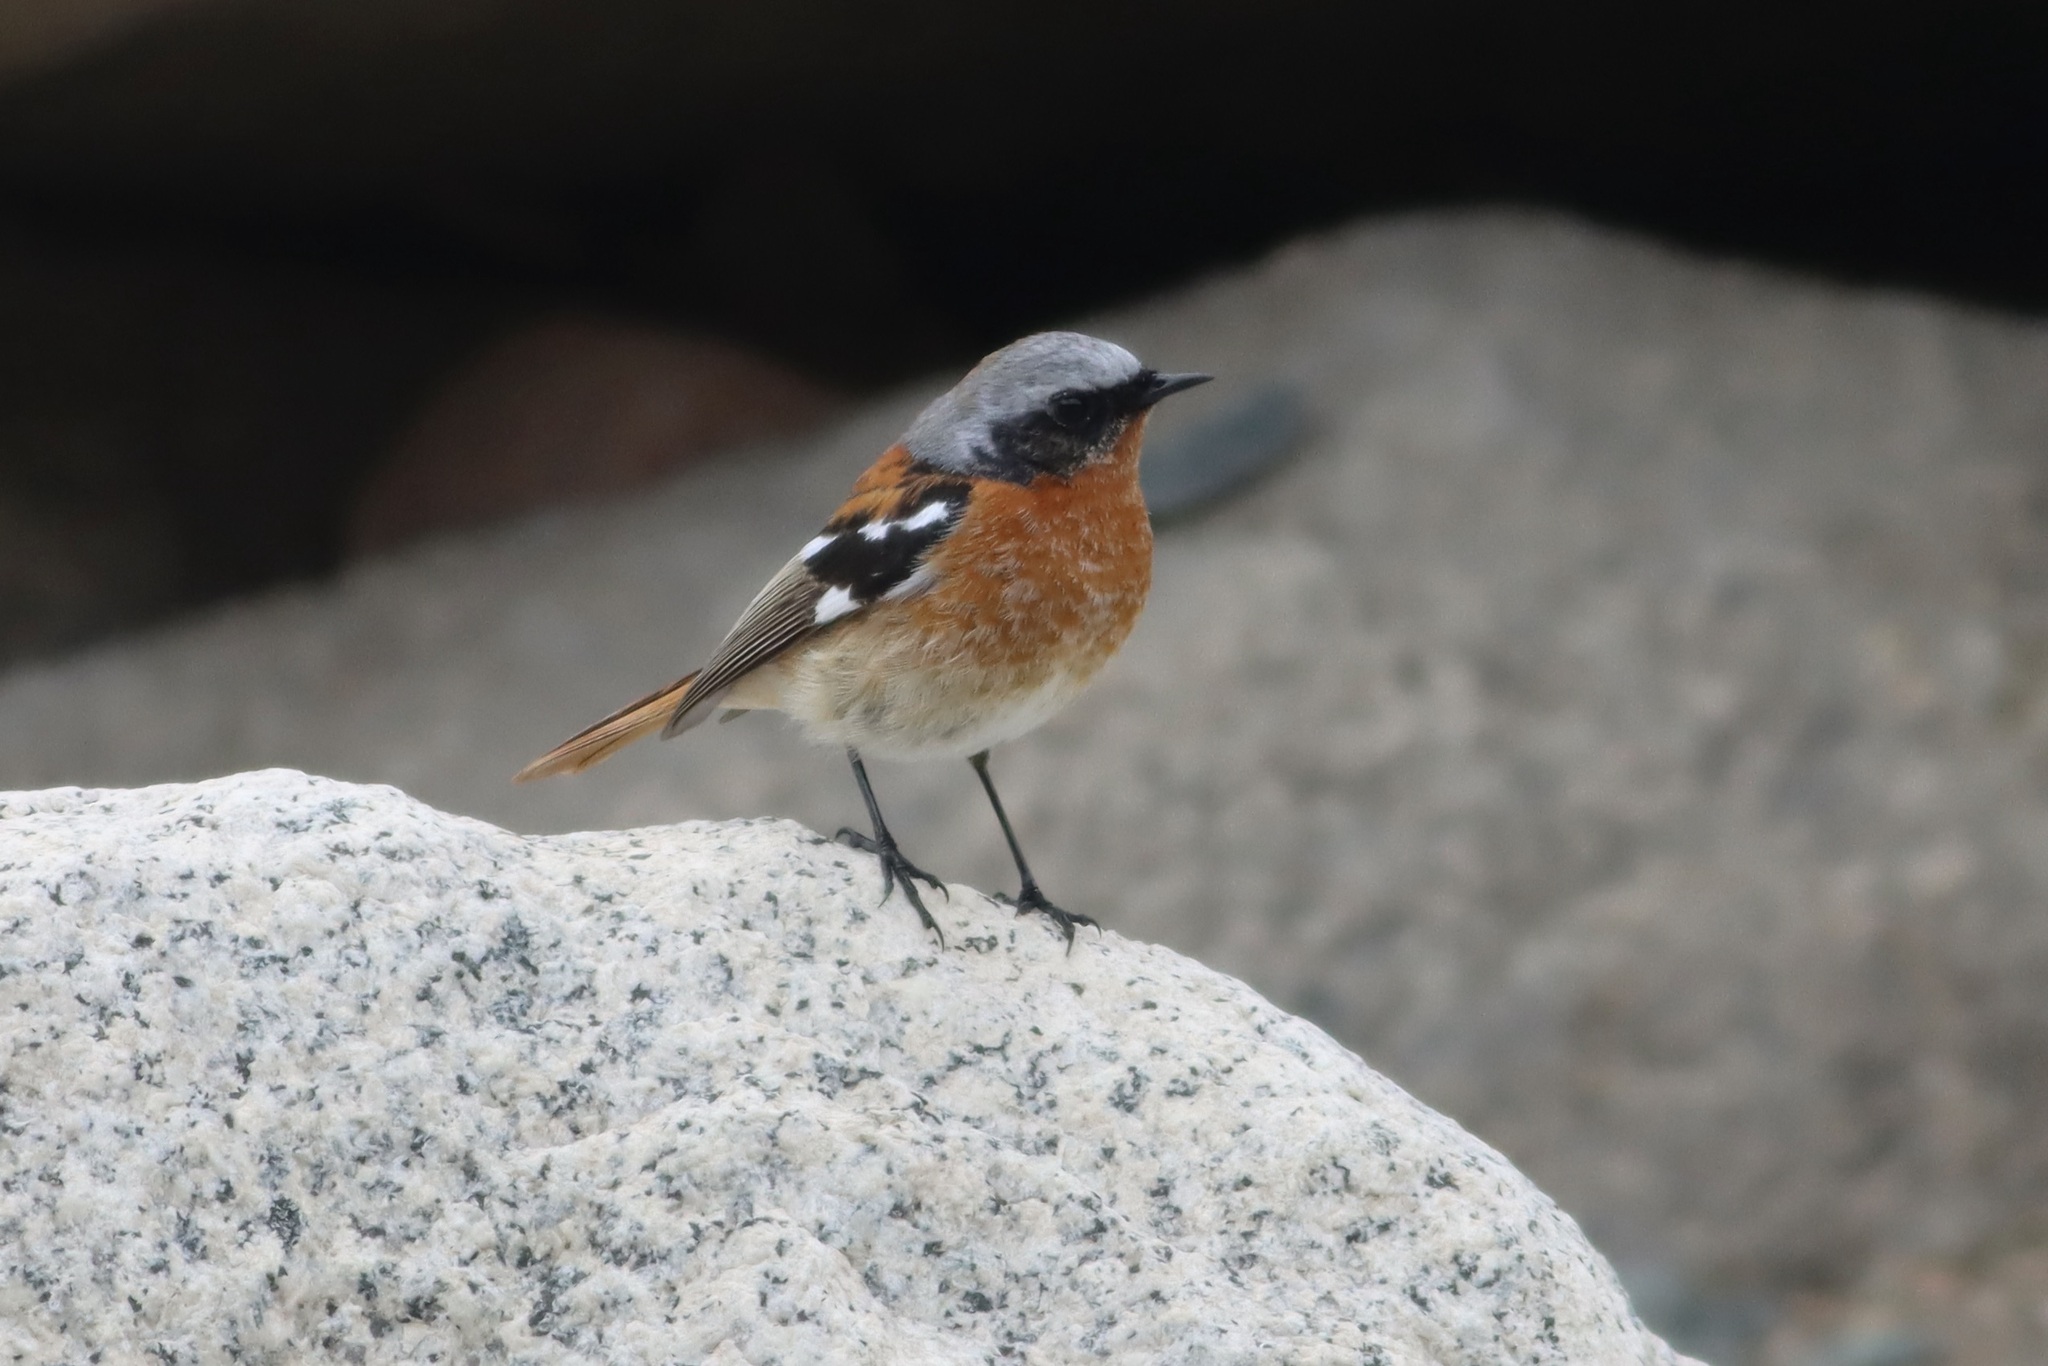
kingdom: Animalia
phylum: Chordata
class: Aves
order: Passeriformes
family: Muscicapidae
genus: Phoenicurus
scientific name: Phoenicurus erythronotus
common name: Eversmann's redstart
